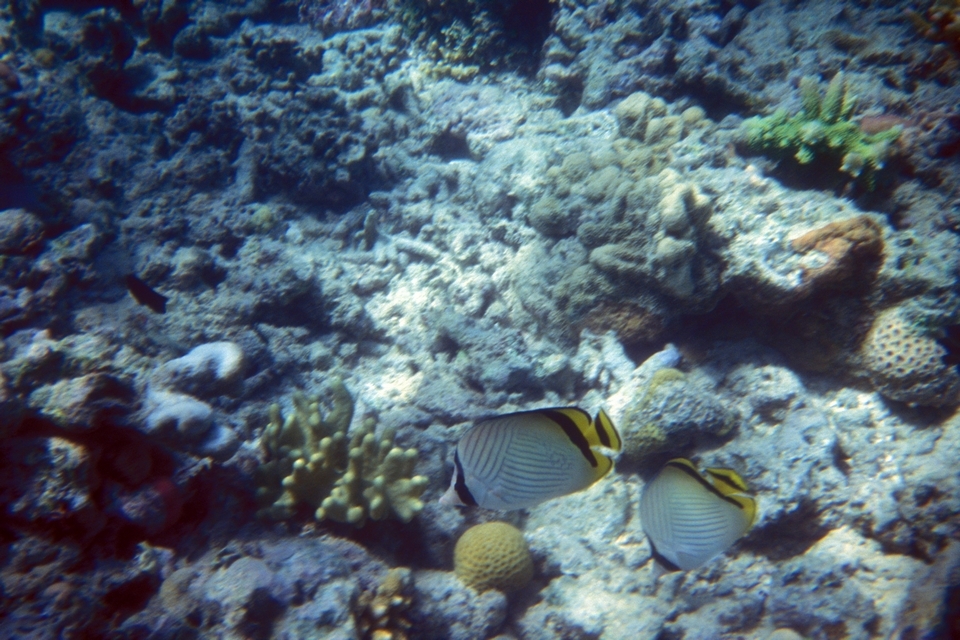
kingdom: Animalia
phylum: Chordata
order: Perciformes
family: Chaetodontidae
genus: Chaetodon
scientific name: Chaetodon vagabundus
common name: Vagabond butterflyfish
